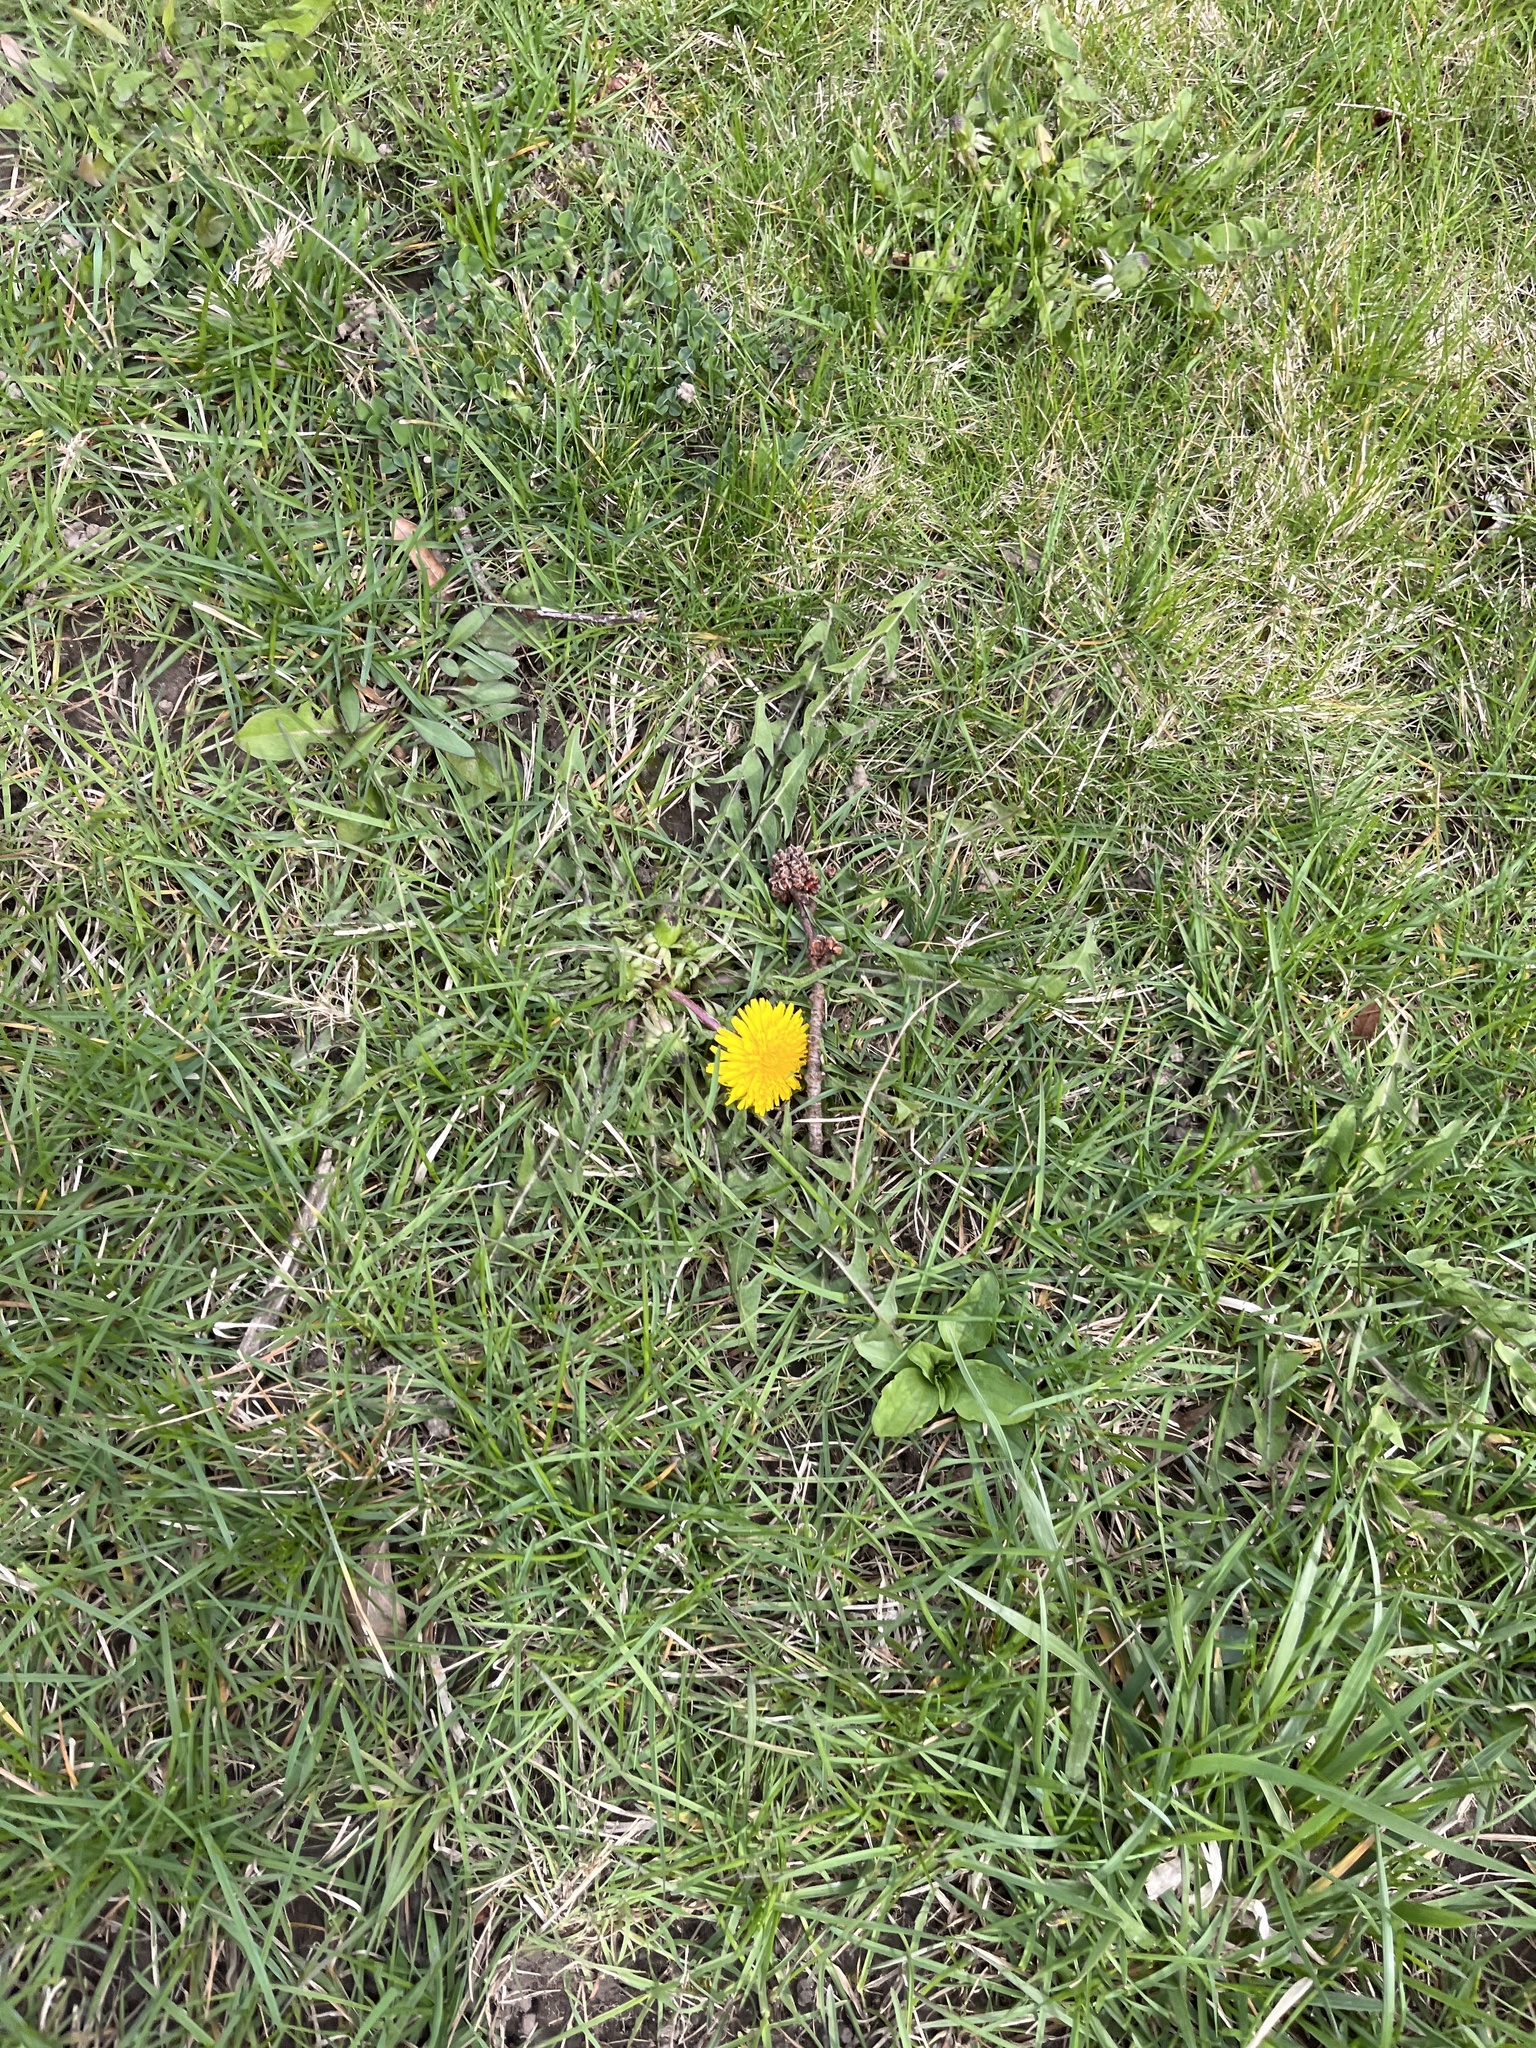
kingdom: Plantae
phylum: Tracheophyta
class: Magnoliopsida
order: Asterales
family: Asteraceae
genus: Taraxacum
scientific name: Taraxacum officinale
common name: Common dandelion
